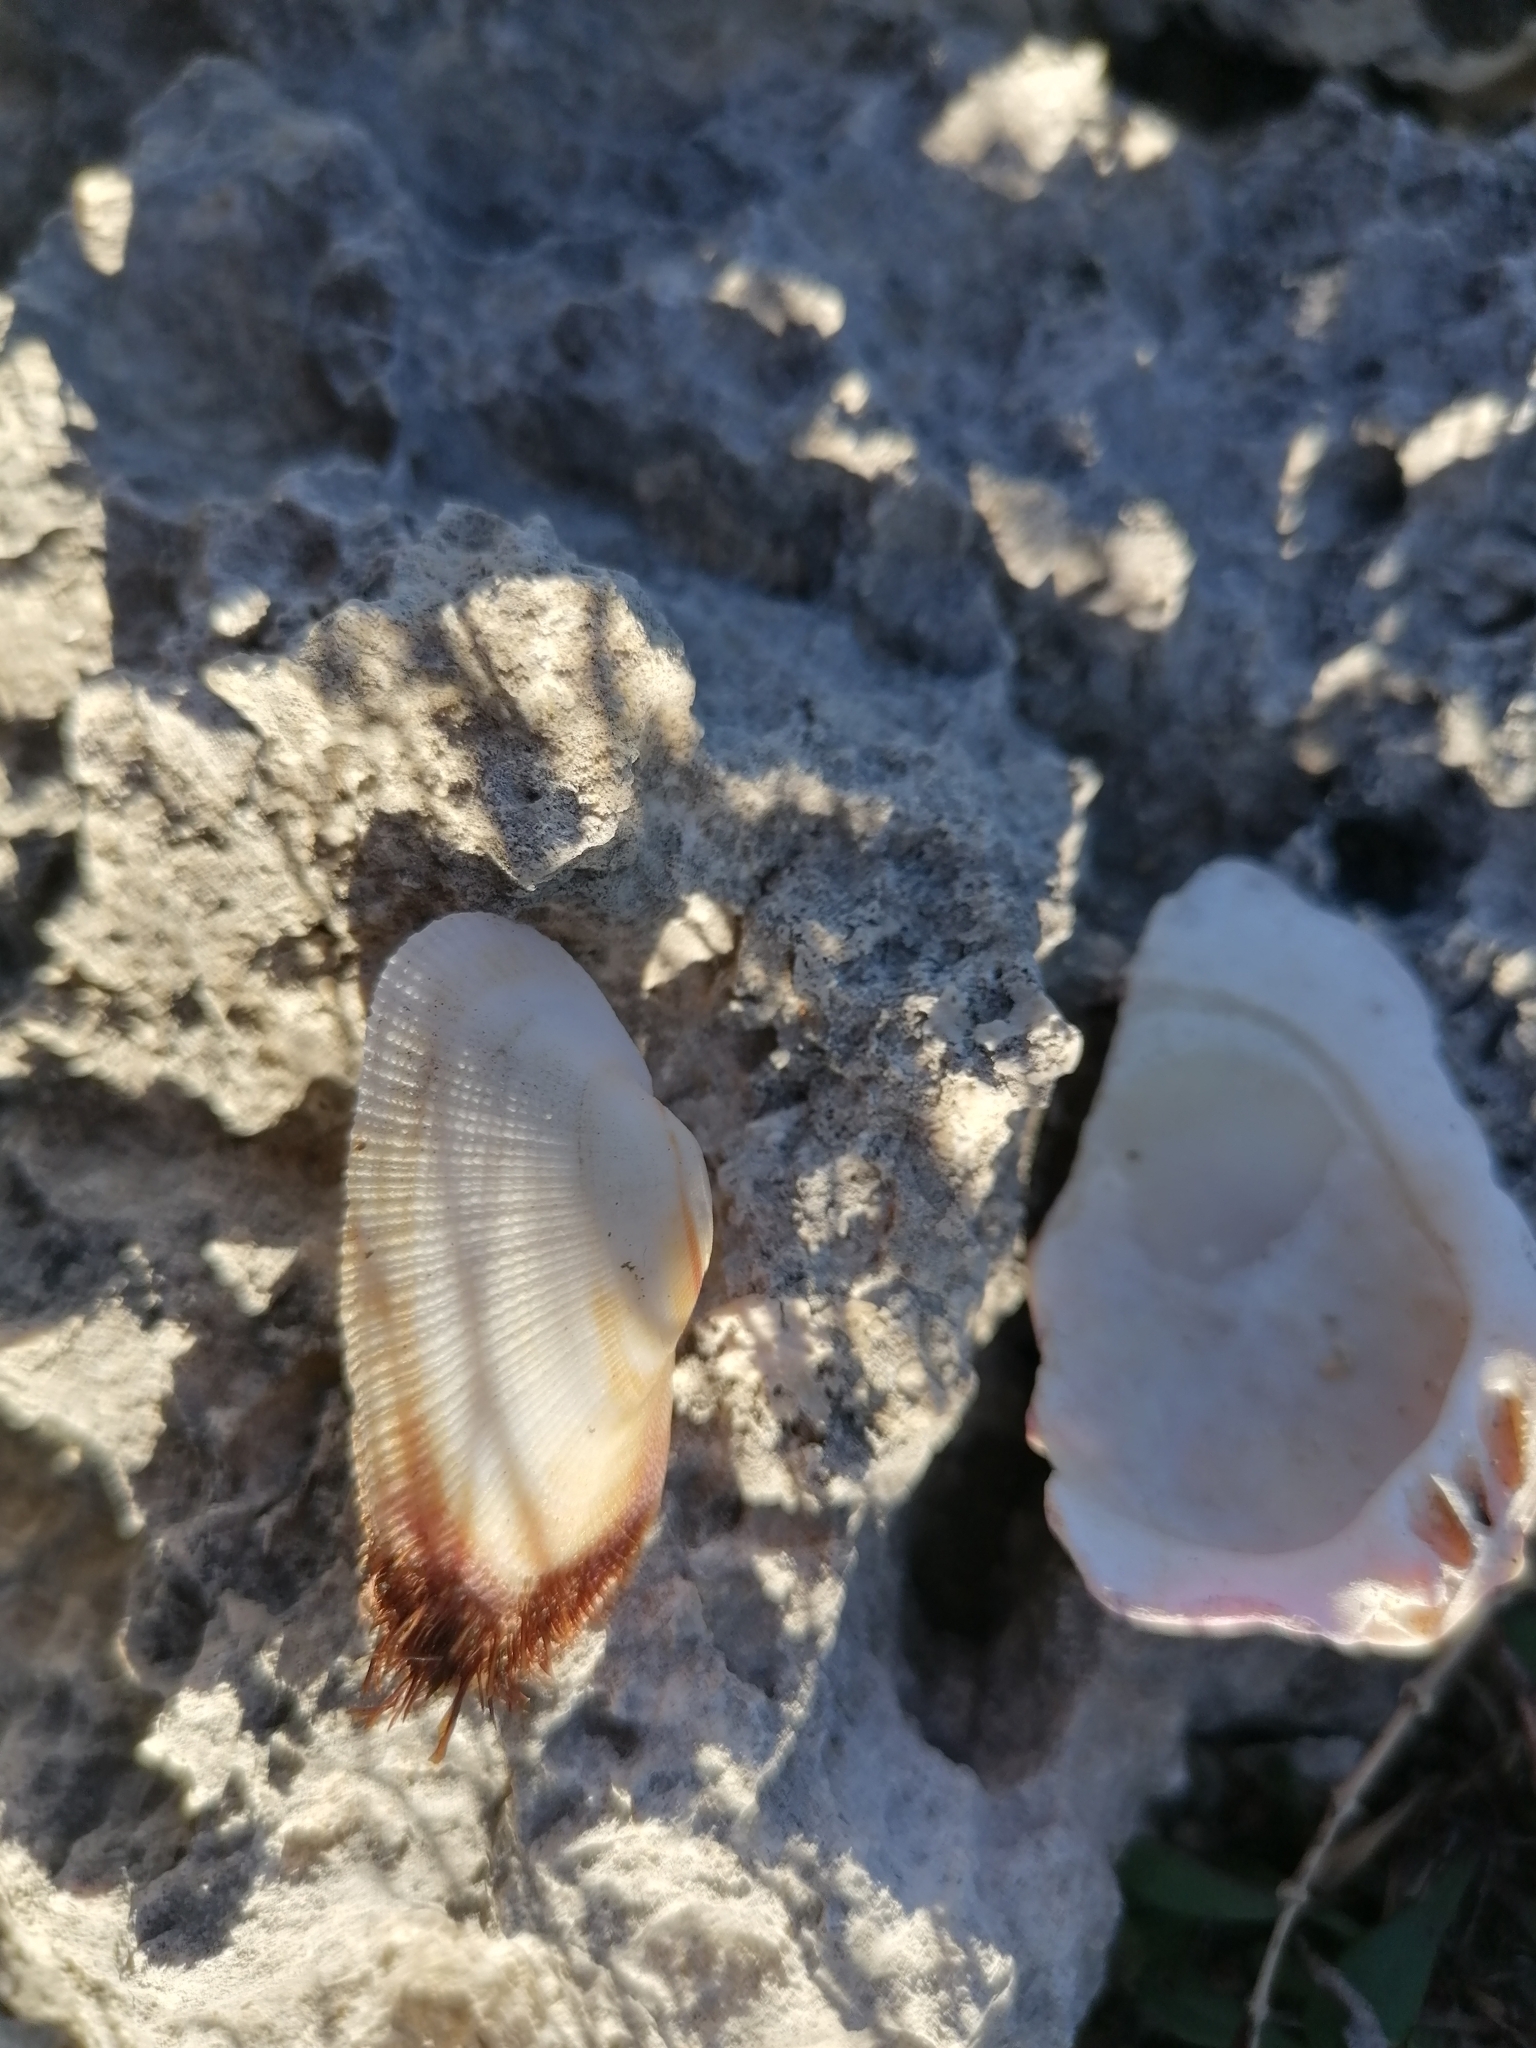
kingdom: Animalia
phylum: Mollusca
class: Bivalvia
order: Arcida
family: Arcidae
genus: Barbatia
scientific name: Barbatia barbata
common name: Bearded ark
